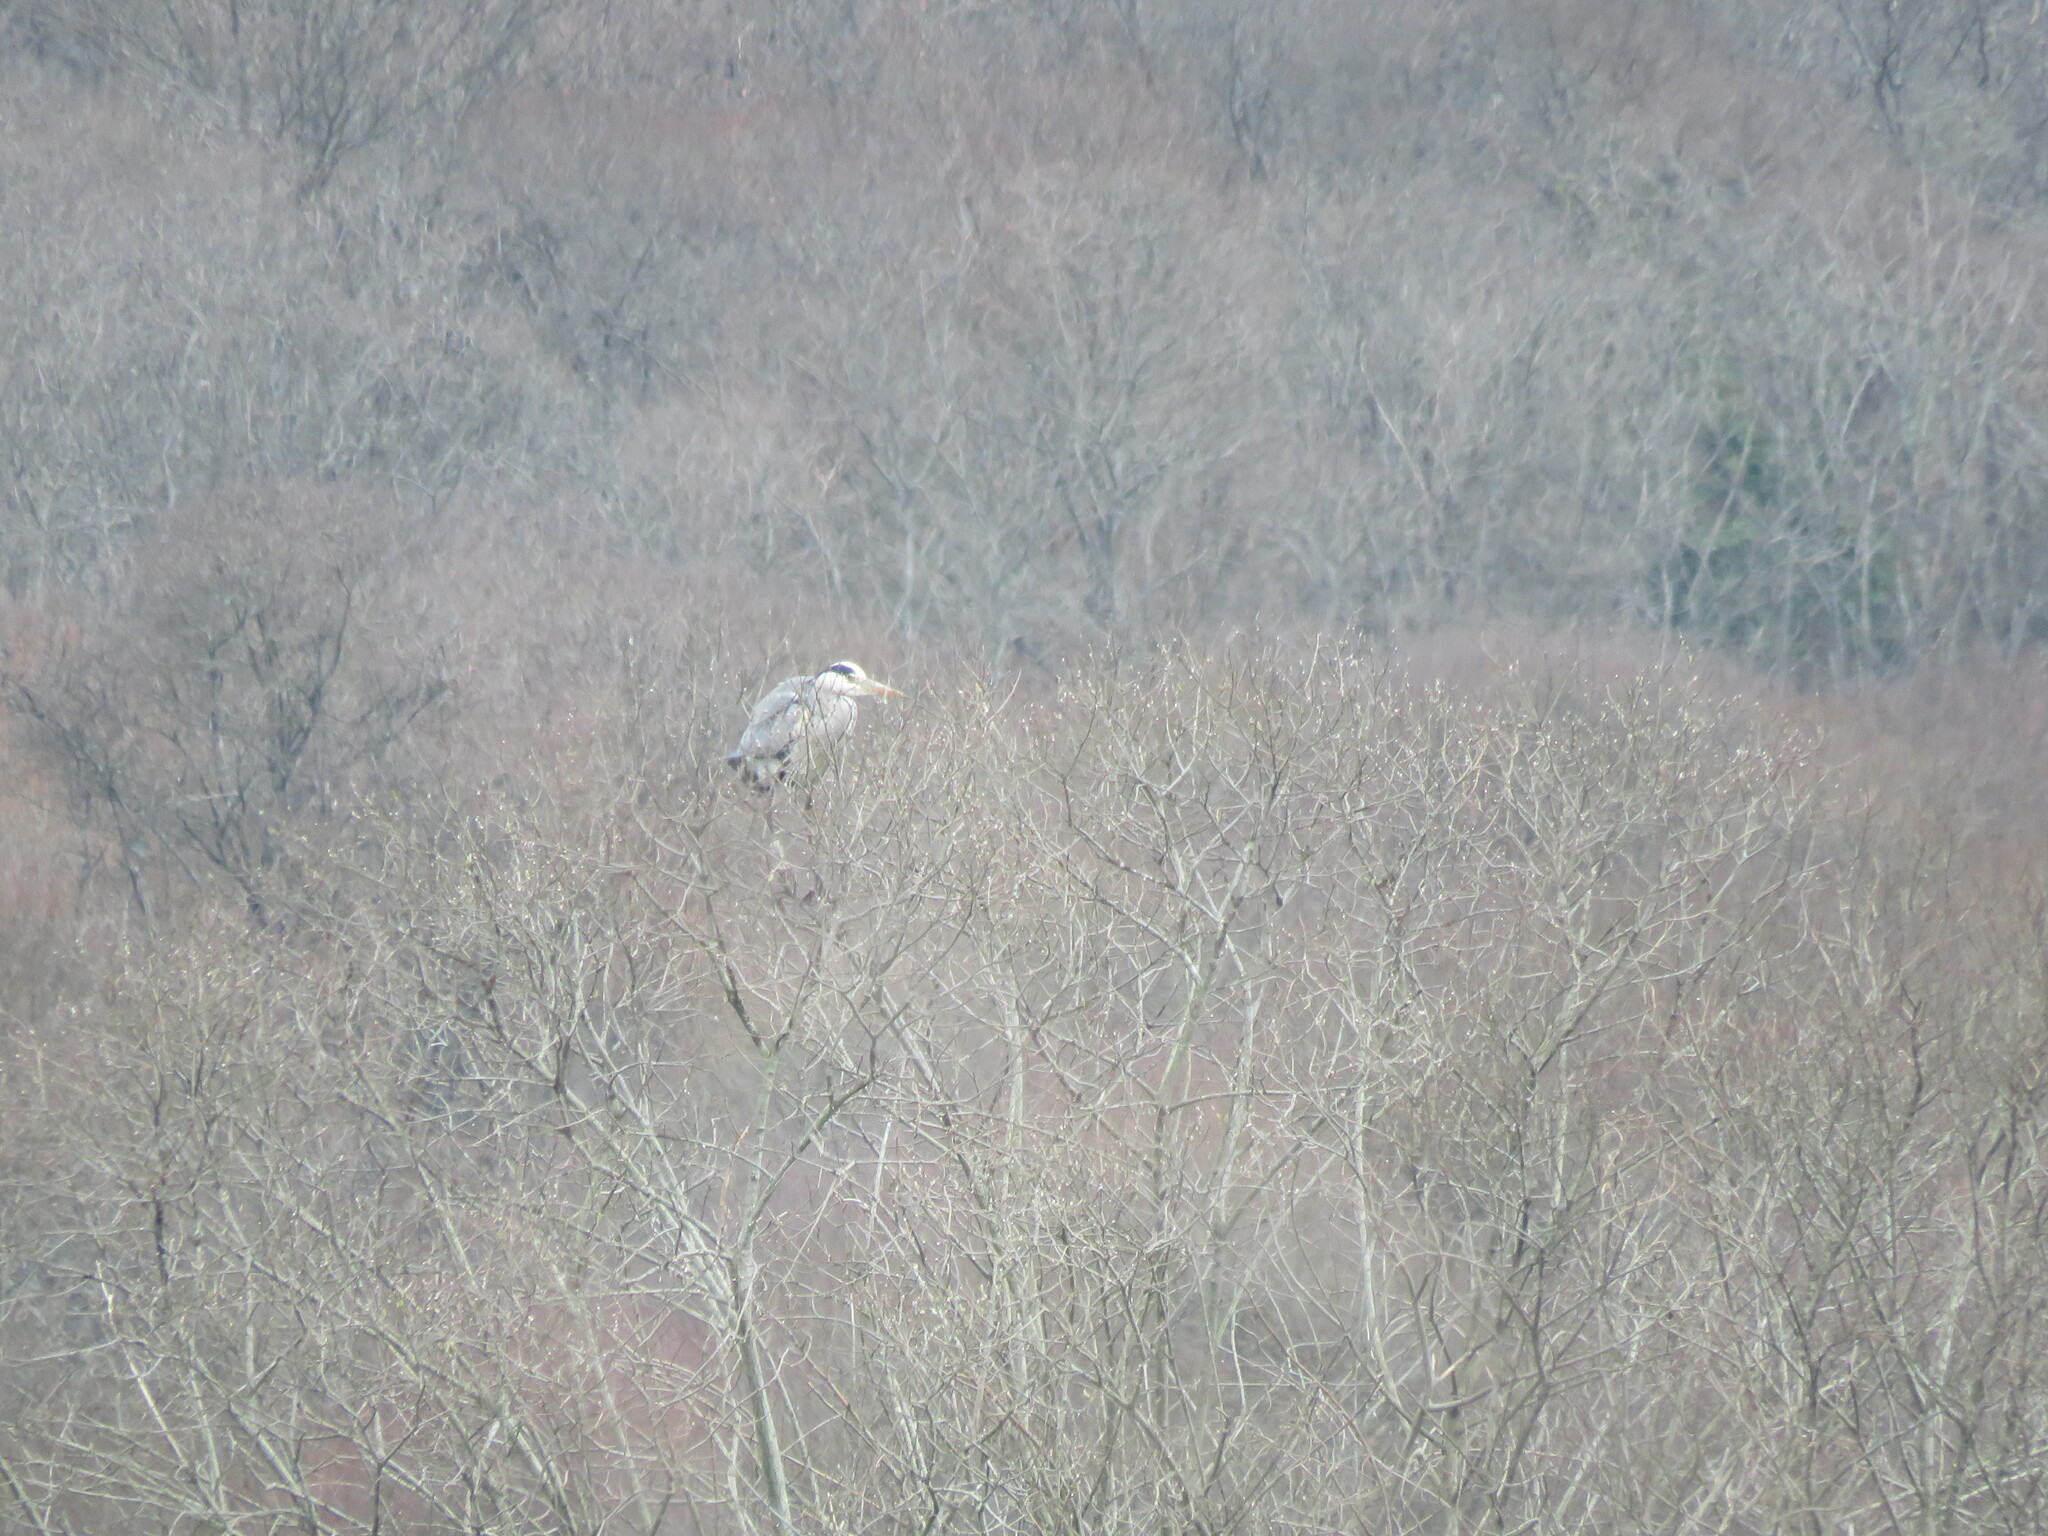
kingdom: Animalia
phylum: Chordata
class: Aves
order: Pelecaniformes
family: Ardeidae
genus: Ardea
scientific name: Ardea cinerea
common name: Grey heron
